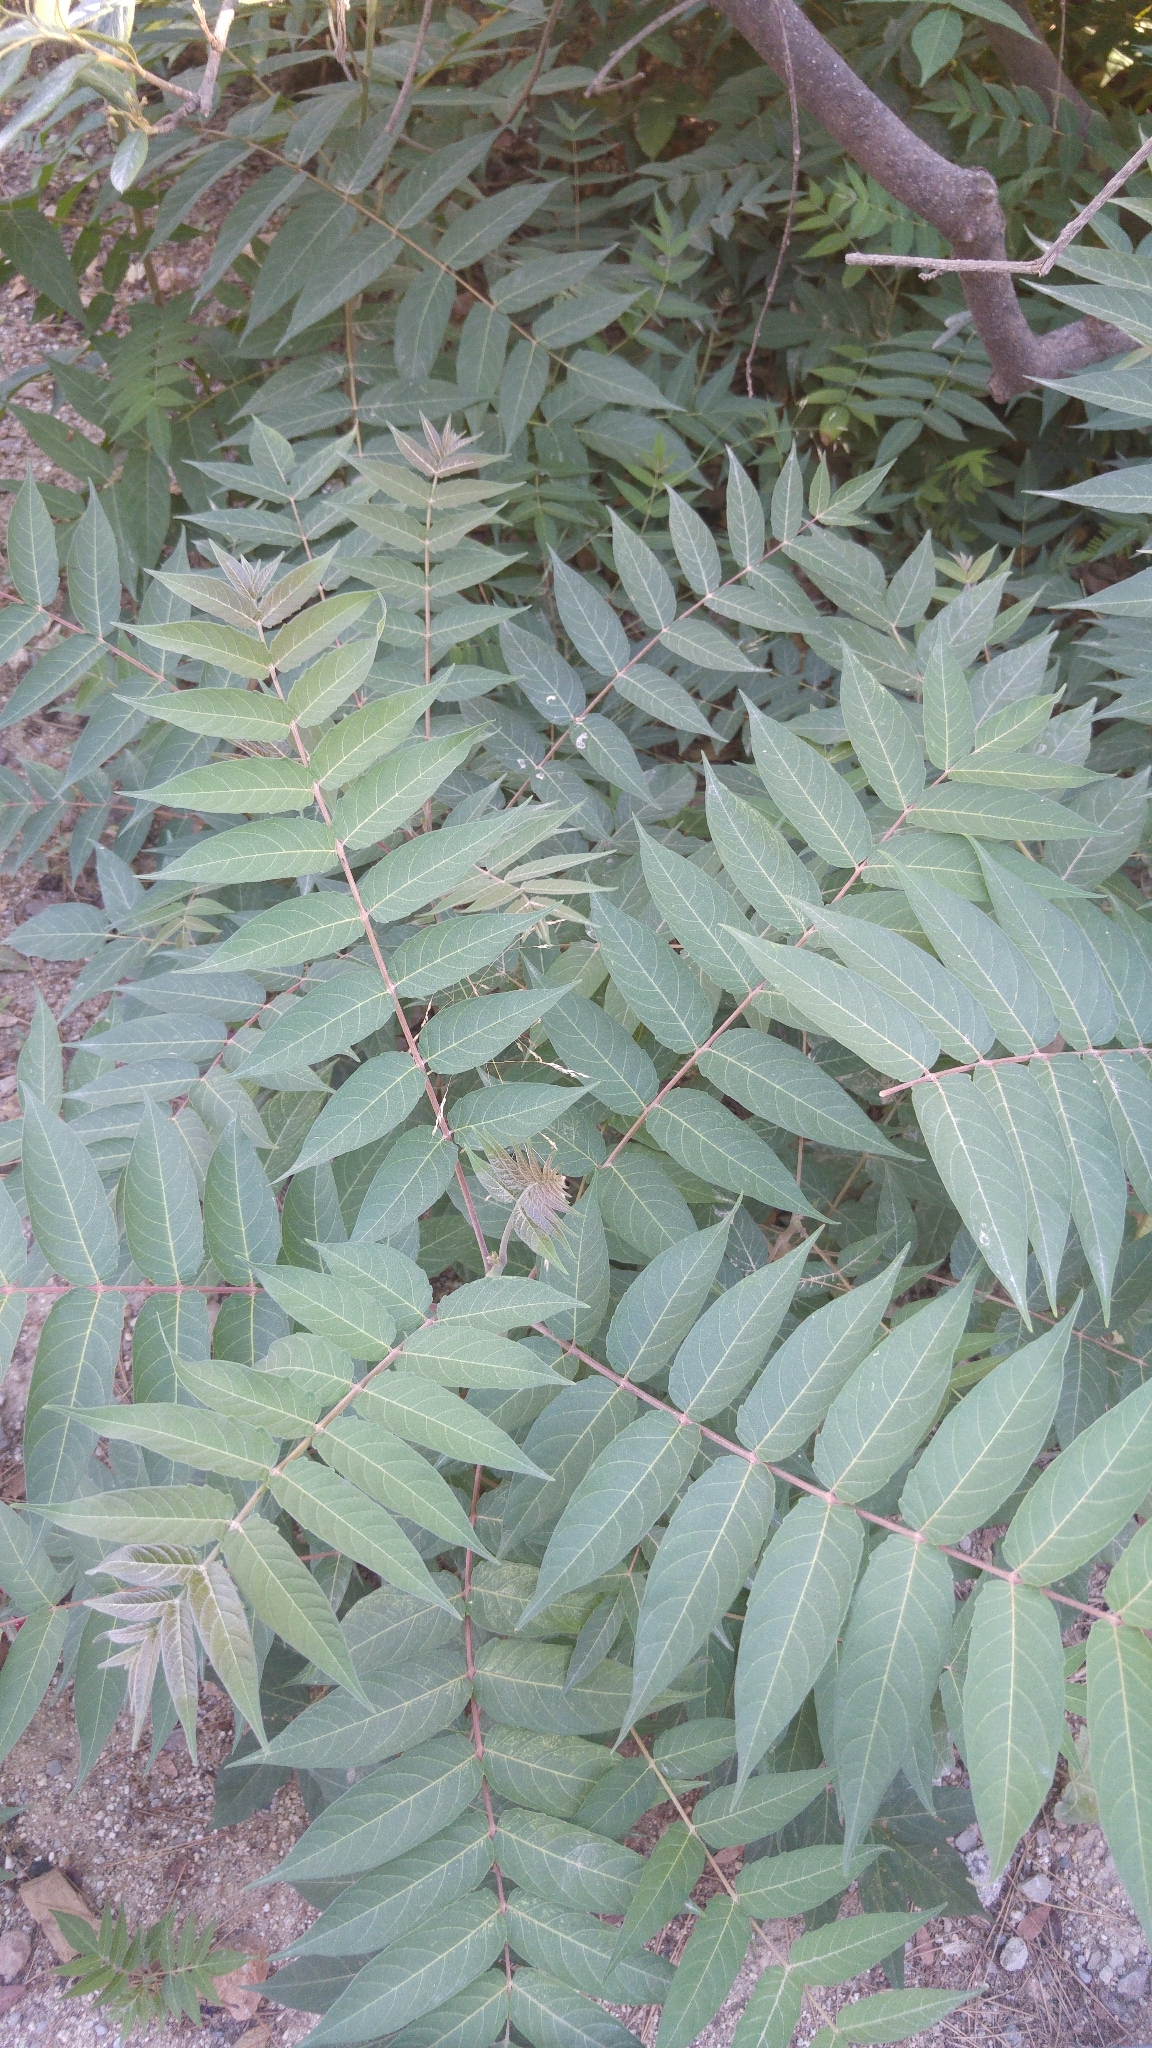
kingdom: Plantae
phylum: Tracheophyta
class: Magnoliopsida
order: Sapindales
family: Simaroubaceae
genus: Ailanthus
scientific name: Ailanthus altissima
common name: Tree-of-heaven
